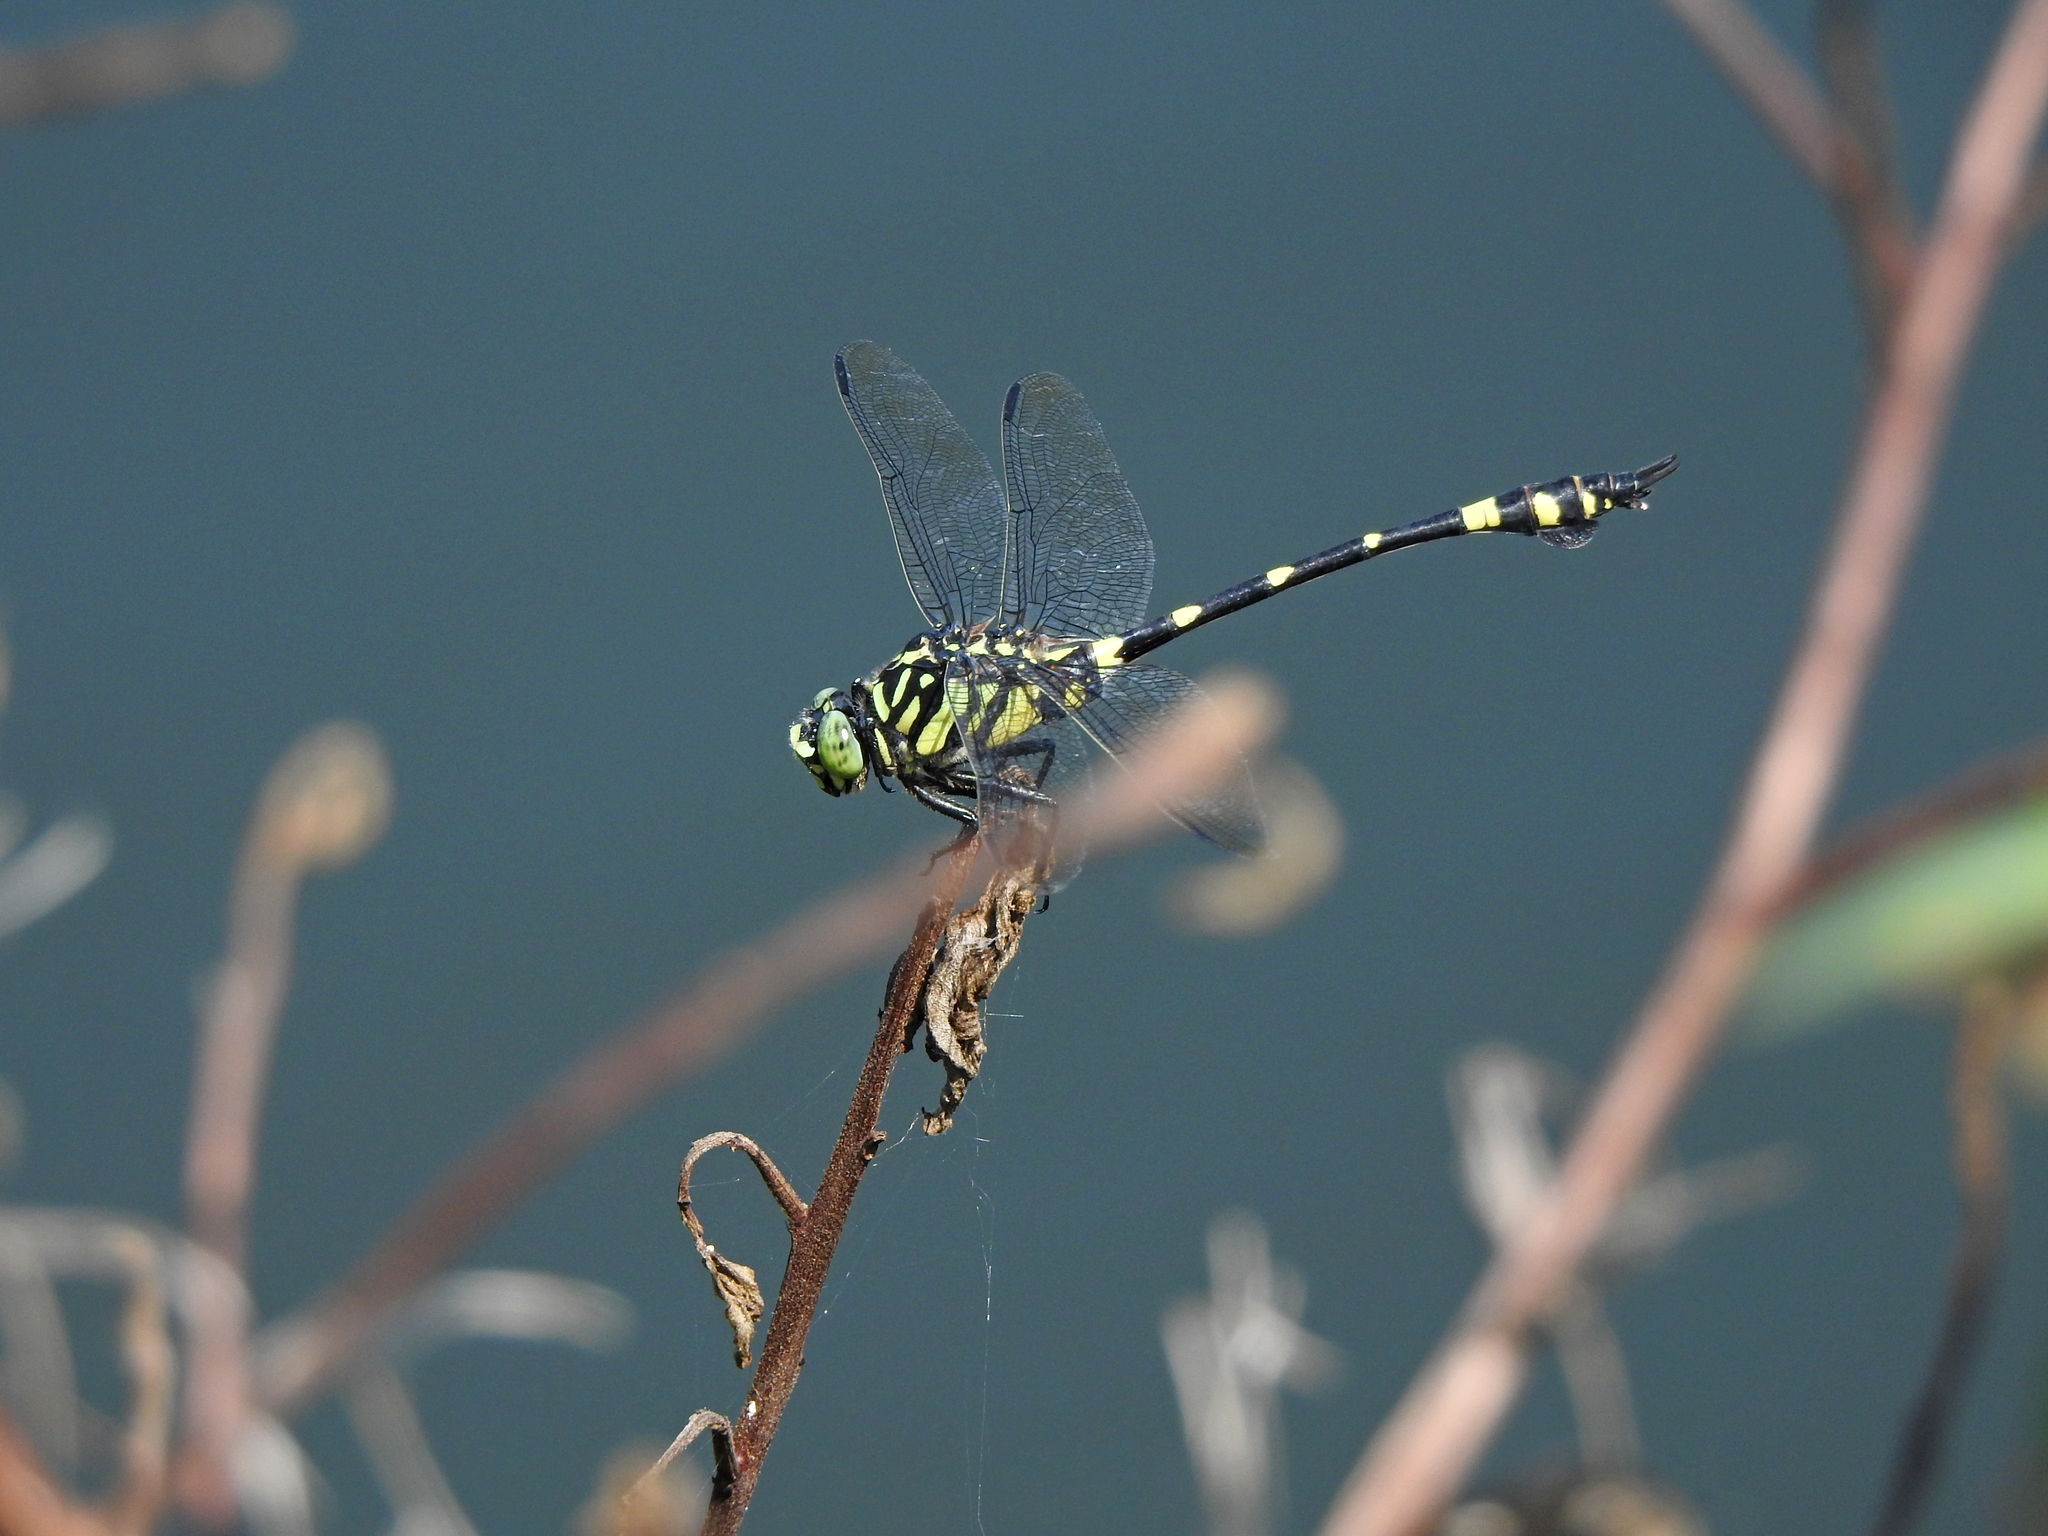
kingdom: Animalia
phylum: Arthropoda
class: Insecta
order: Odonata
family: Gomphidae
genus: Ictinogomphus
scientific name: Ictinogomphus rapax
